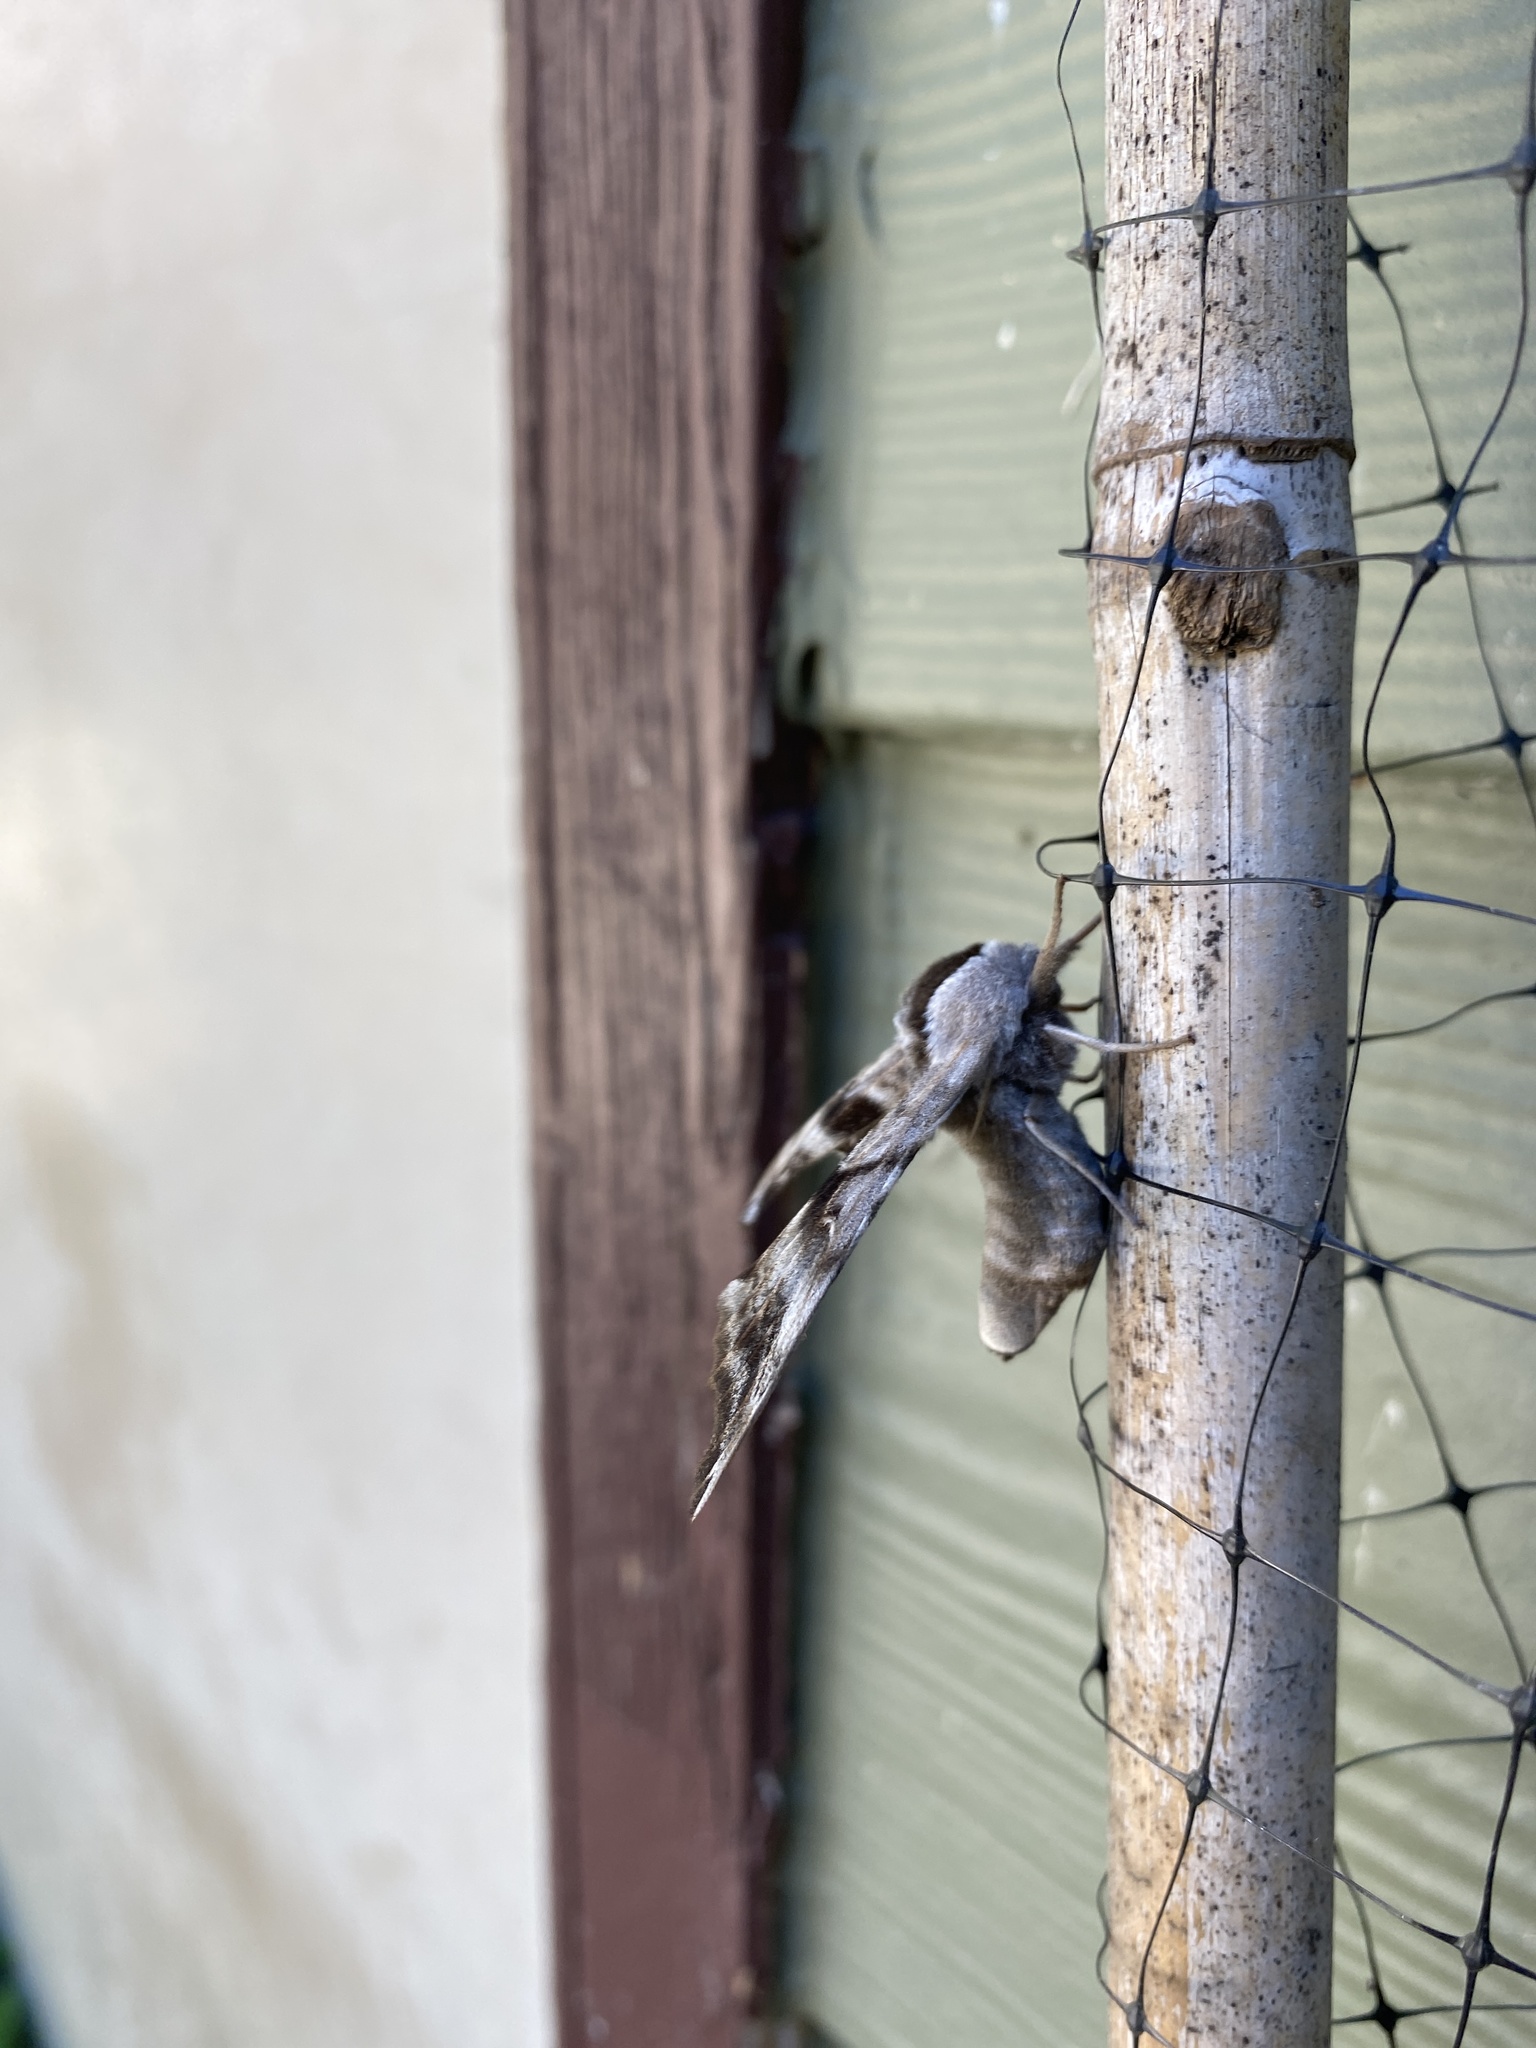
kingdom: Animalia
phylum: Arthropoda
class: Insecta
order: Lepidoptera
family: Sphingidae
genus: Smerinthus
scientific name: Smerinthus cerisyi
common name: Cerisy's sphinx moth
